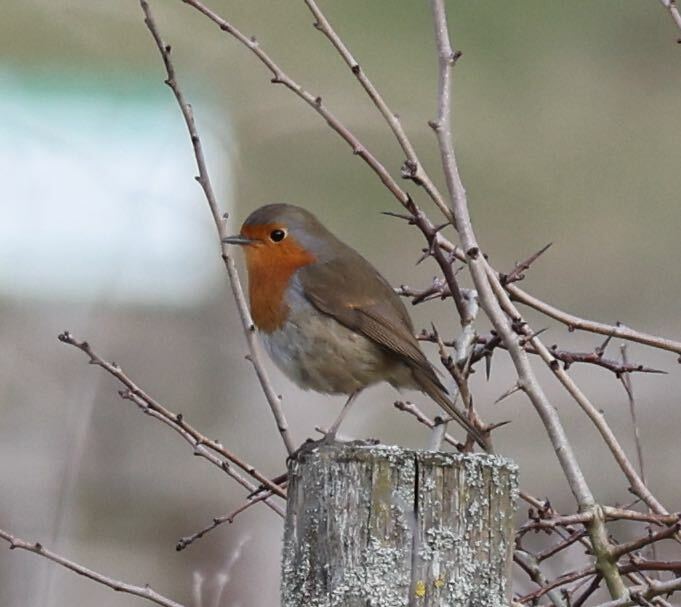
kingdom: Animalia
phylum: Chordata
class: Aves
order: Passeriformes
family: Muscicapidae
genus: Erithacus
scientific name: Erithacus rubecula
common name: European robin
